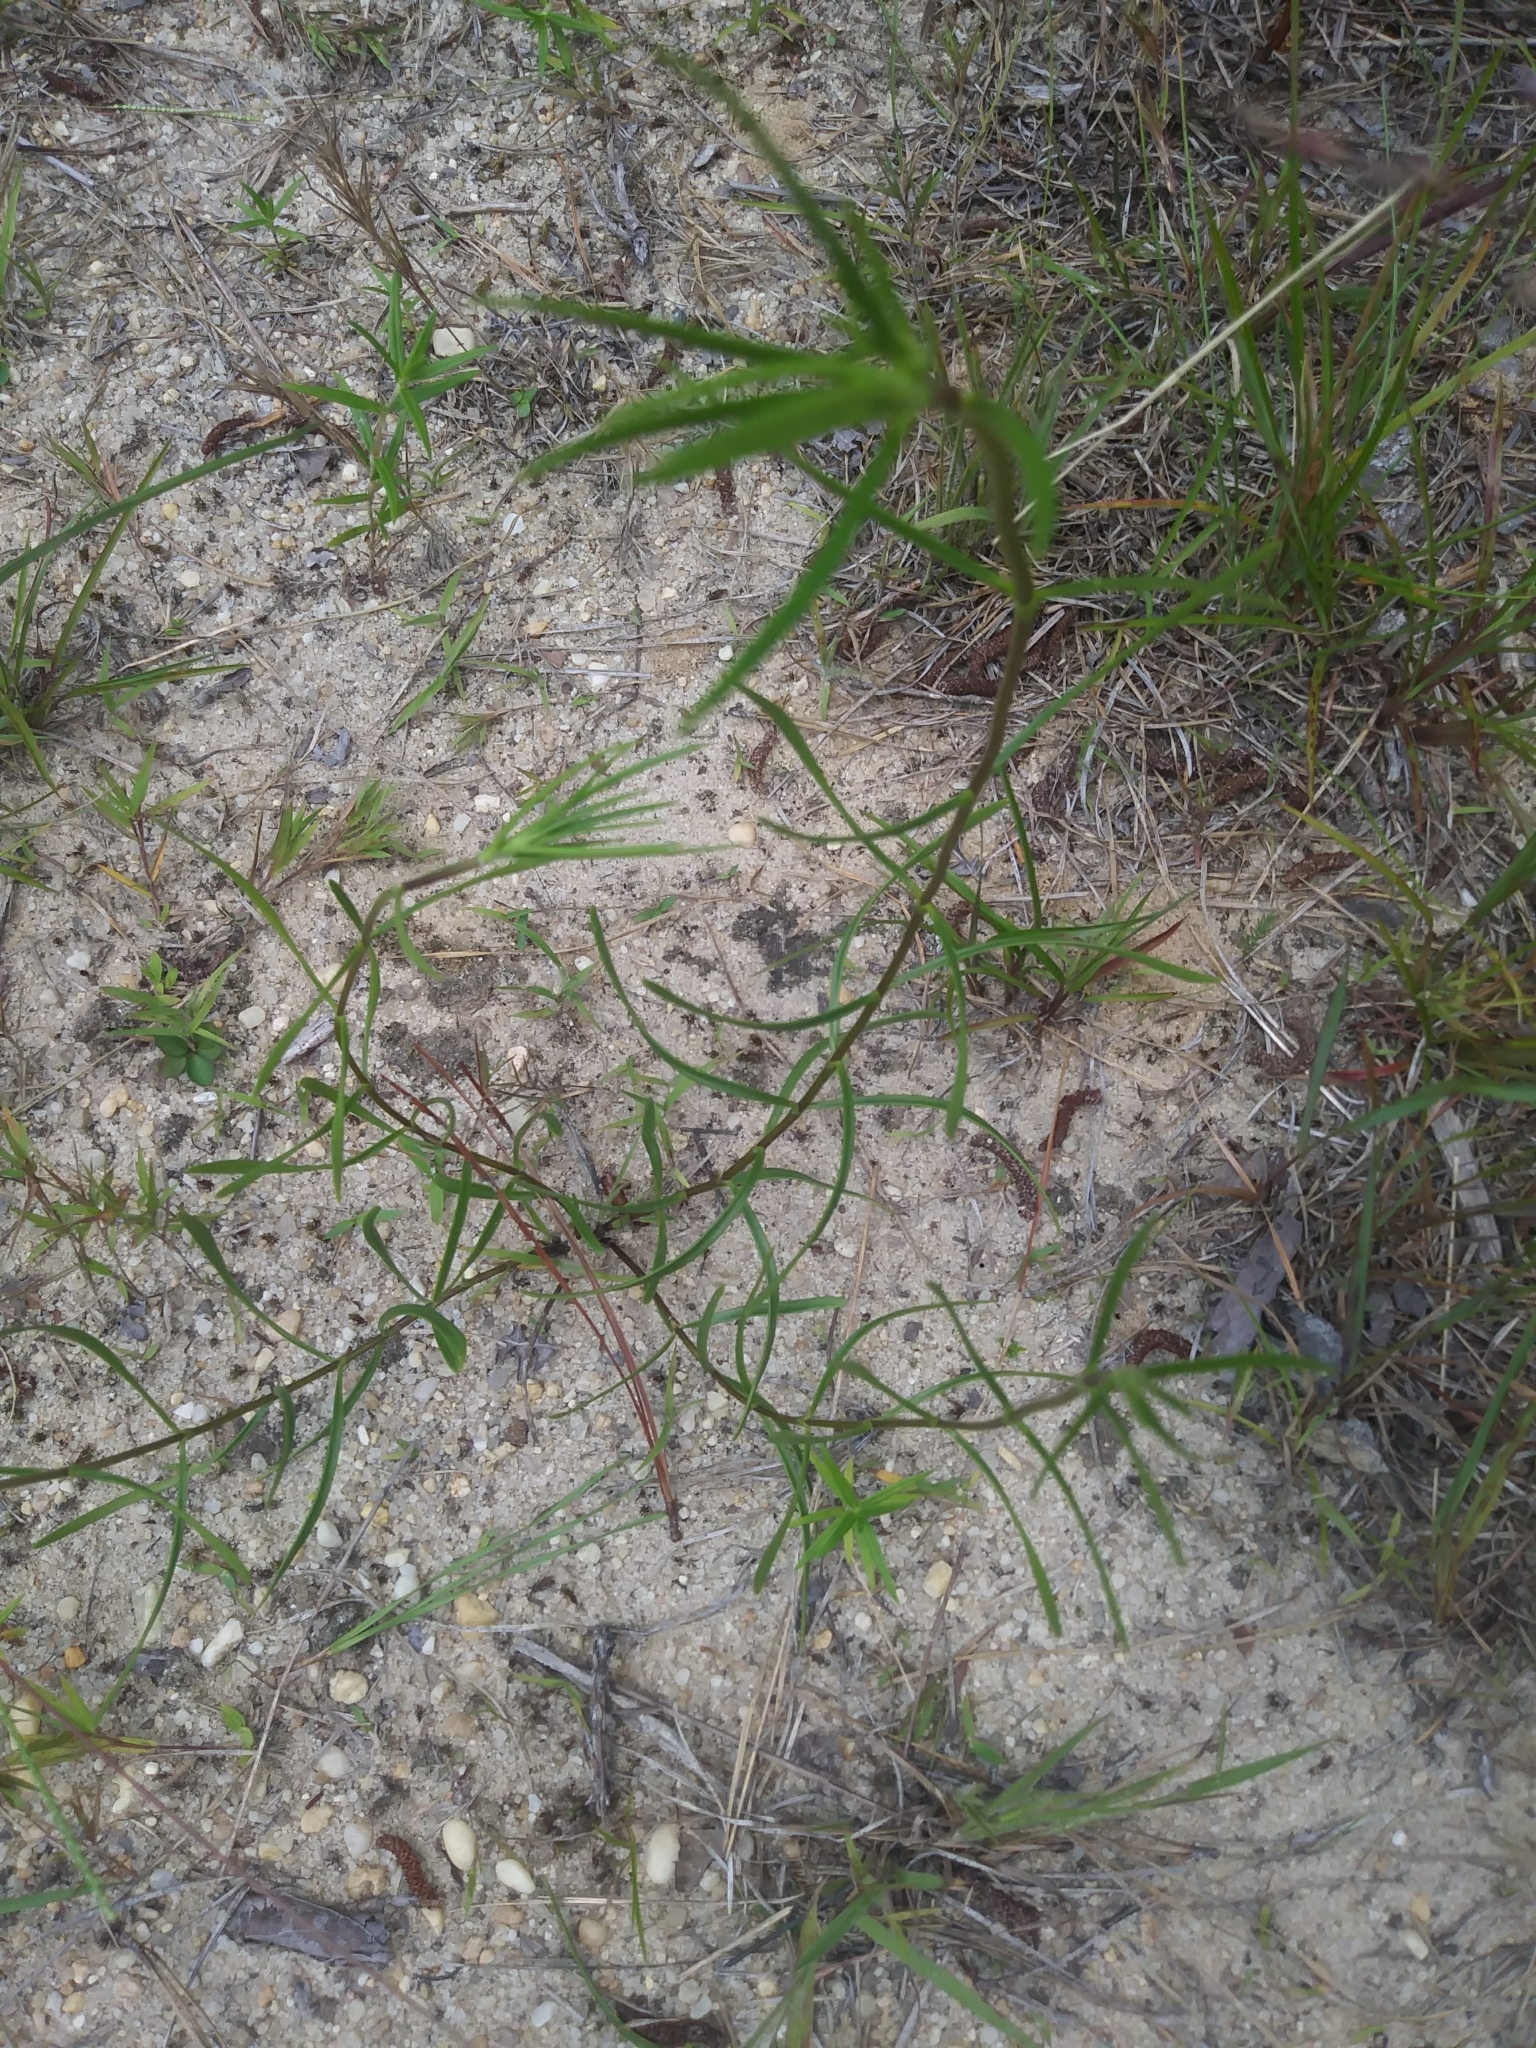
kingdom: Plantae
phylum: Tracheophyta
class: Magnoliopsida
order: Gentianales
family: Gentianaceae
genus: Gentiana
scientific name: Gentiana autumnalis
